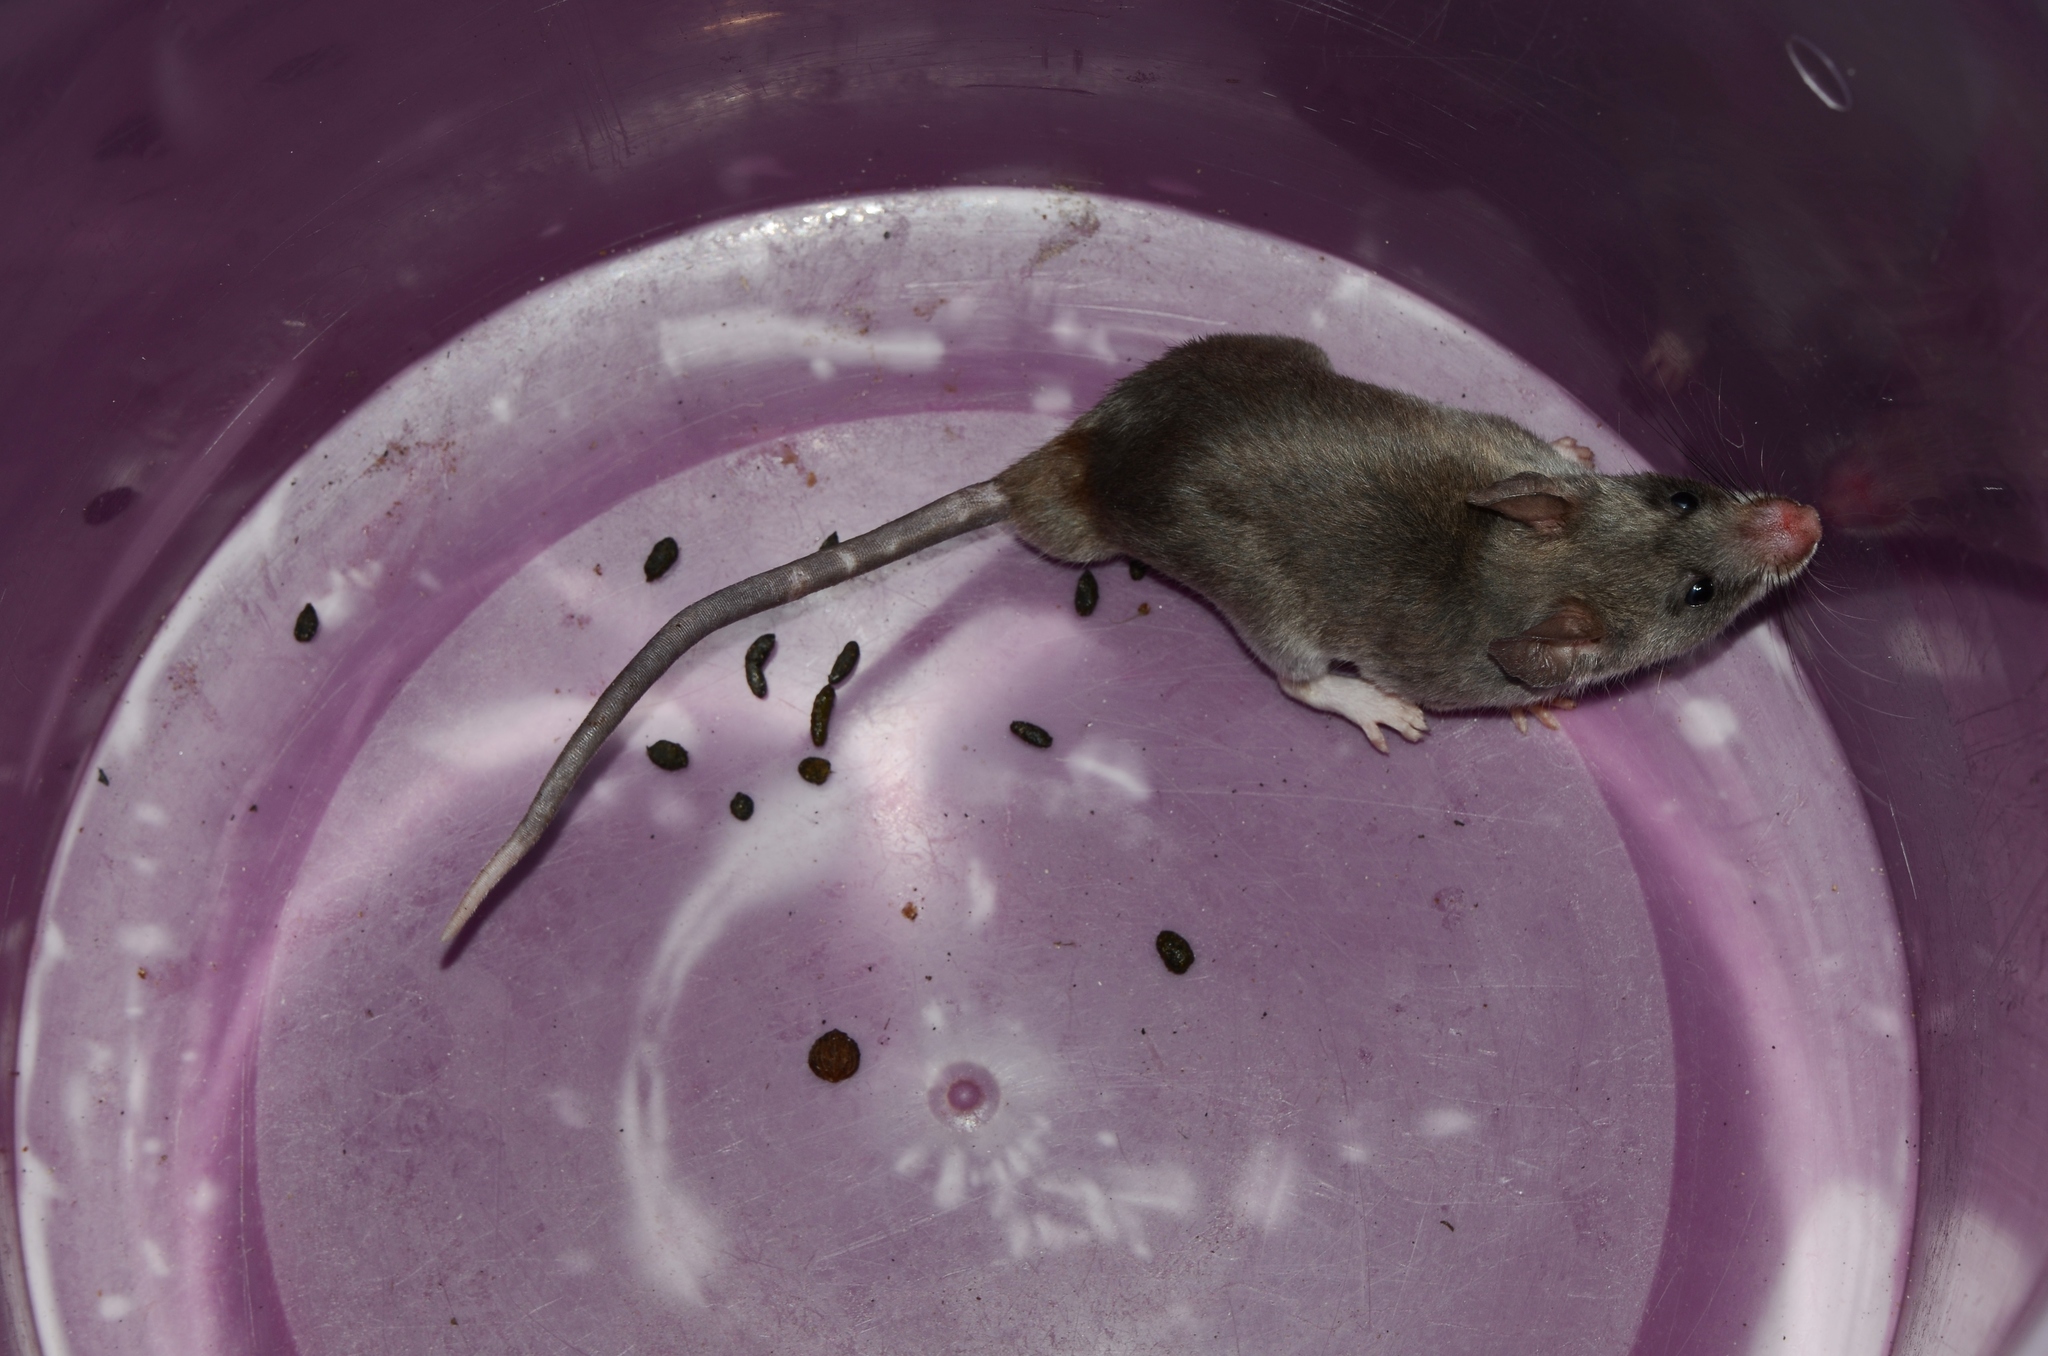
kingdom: Animalia
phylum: Chordata
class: Mammalia
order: Rodentia
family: Nesomyidae
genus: Beamys
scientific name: Beamys hindei
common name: Lesser hamster-rat, long-tailed pouched rat
